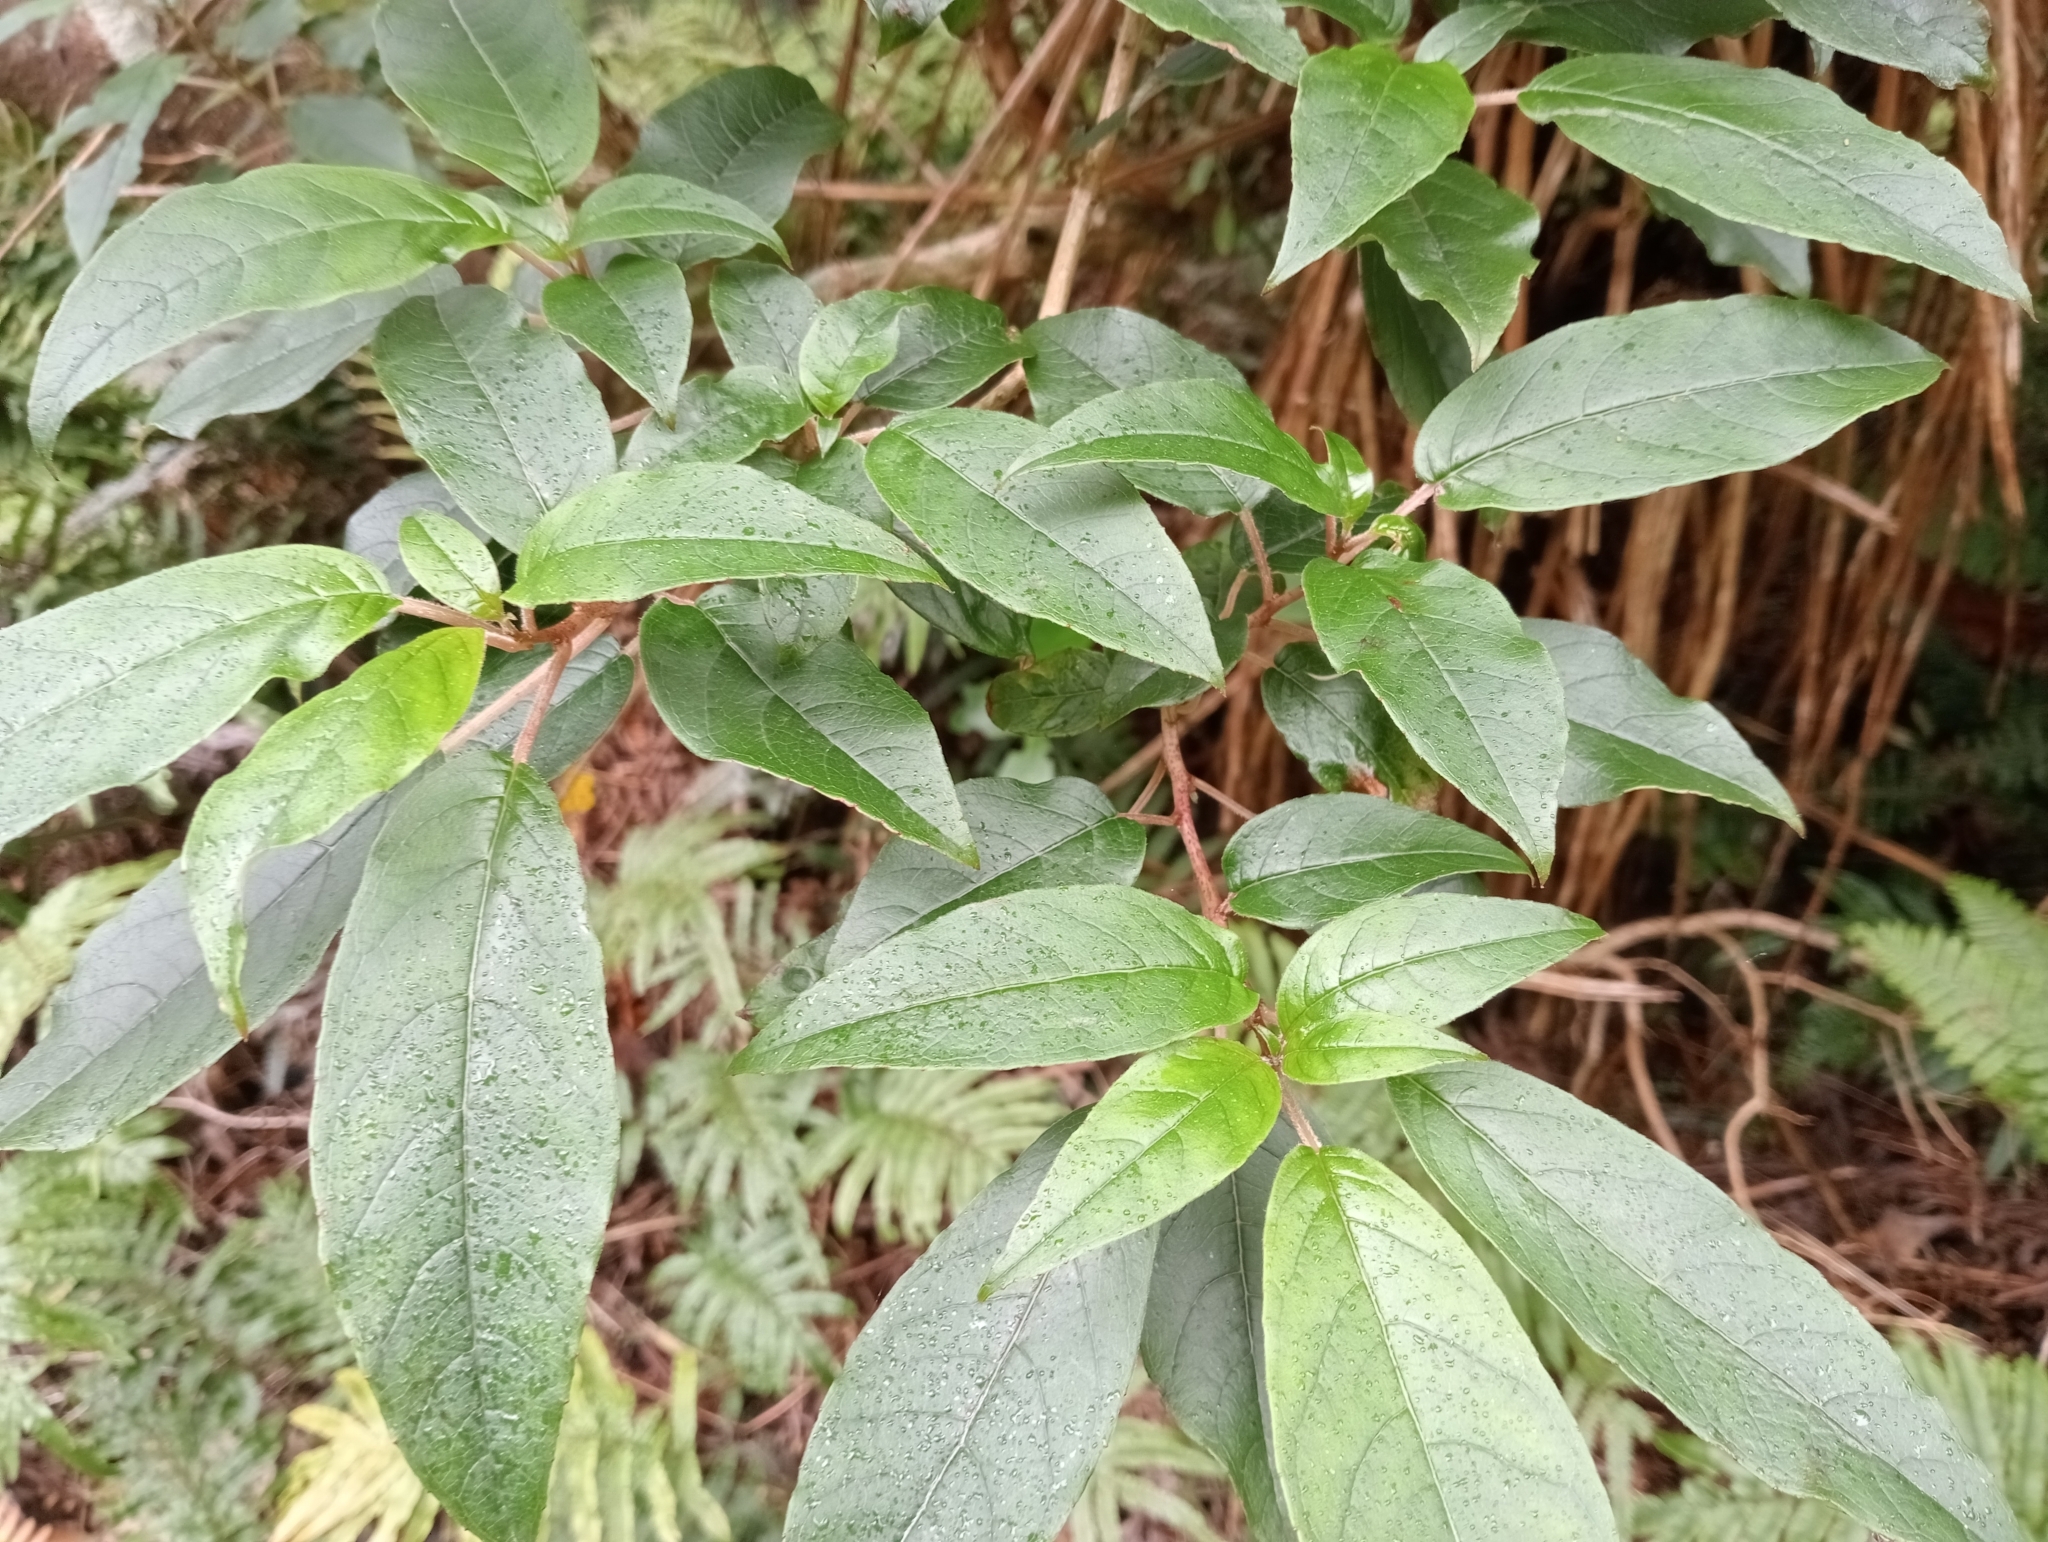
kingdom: Plantae
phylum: Tracheophyta
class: Magnoliopsida
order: Myrtales
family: Onagraceae
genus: Fuchsia
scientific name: Fuchsia excorticata
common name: Tree fuchsia
